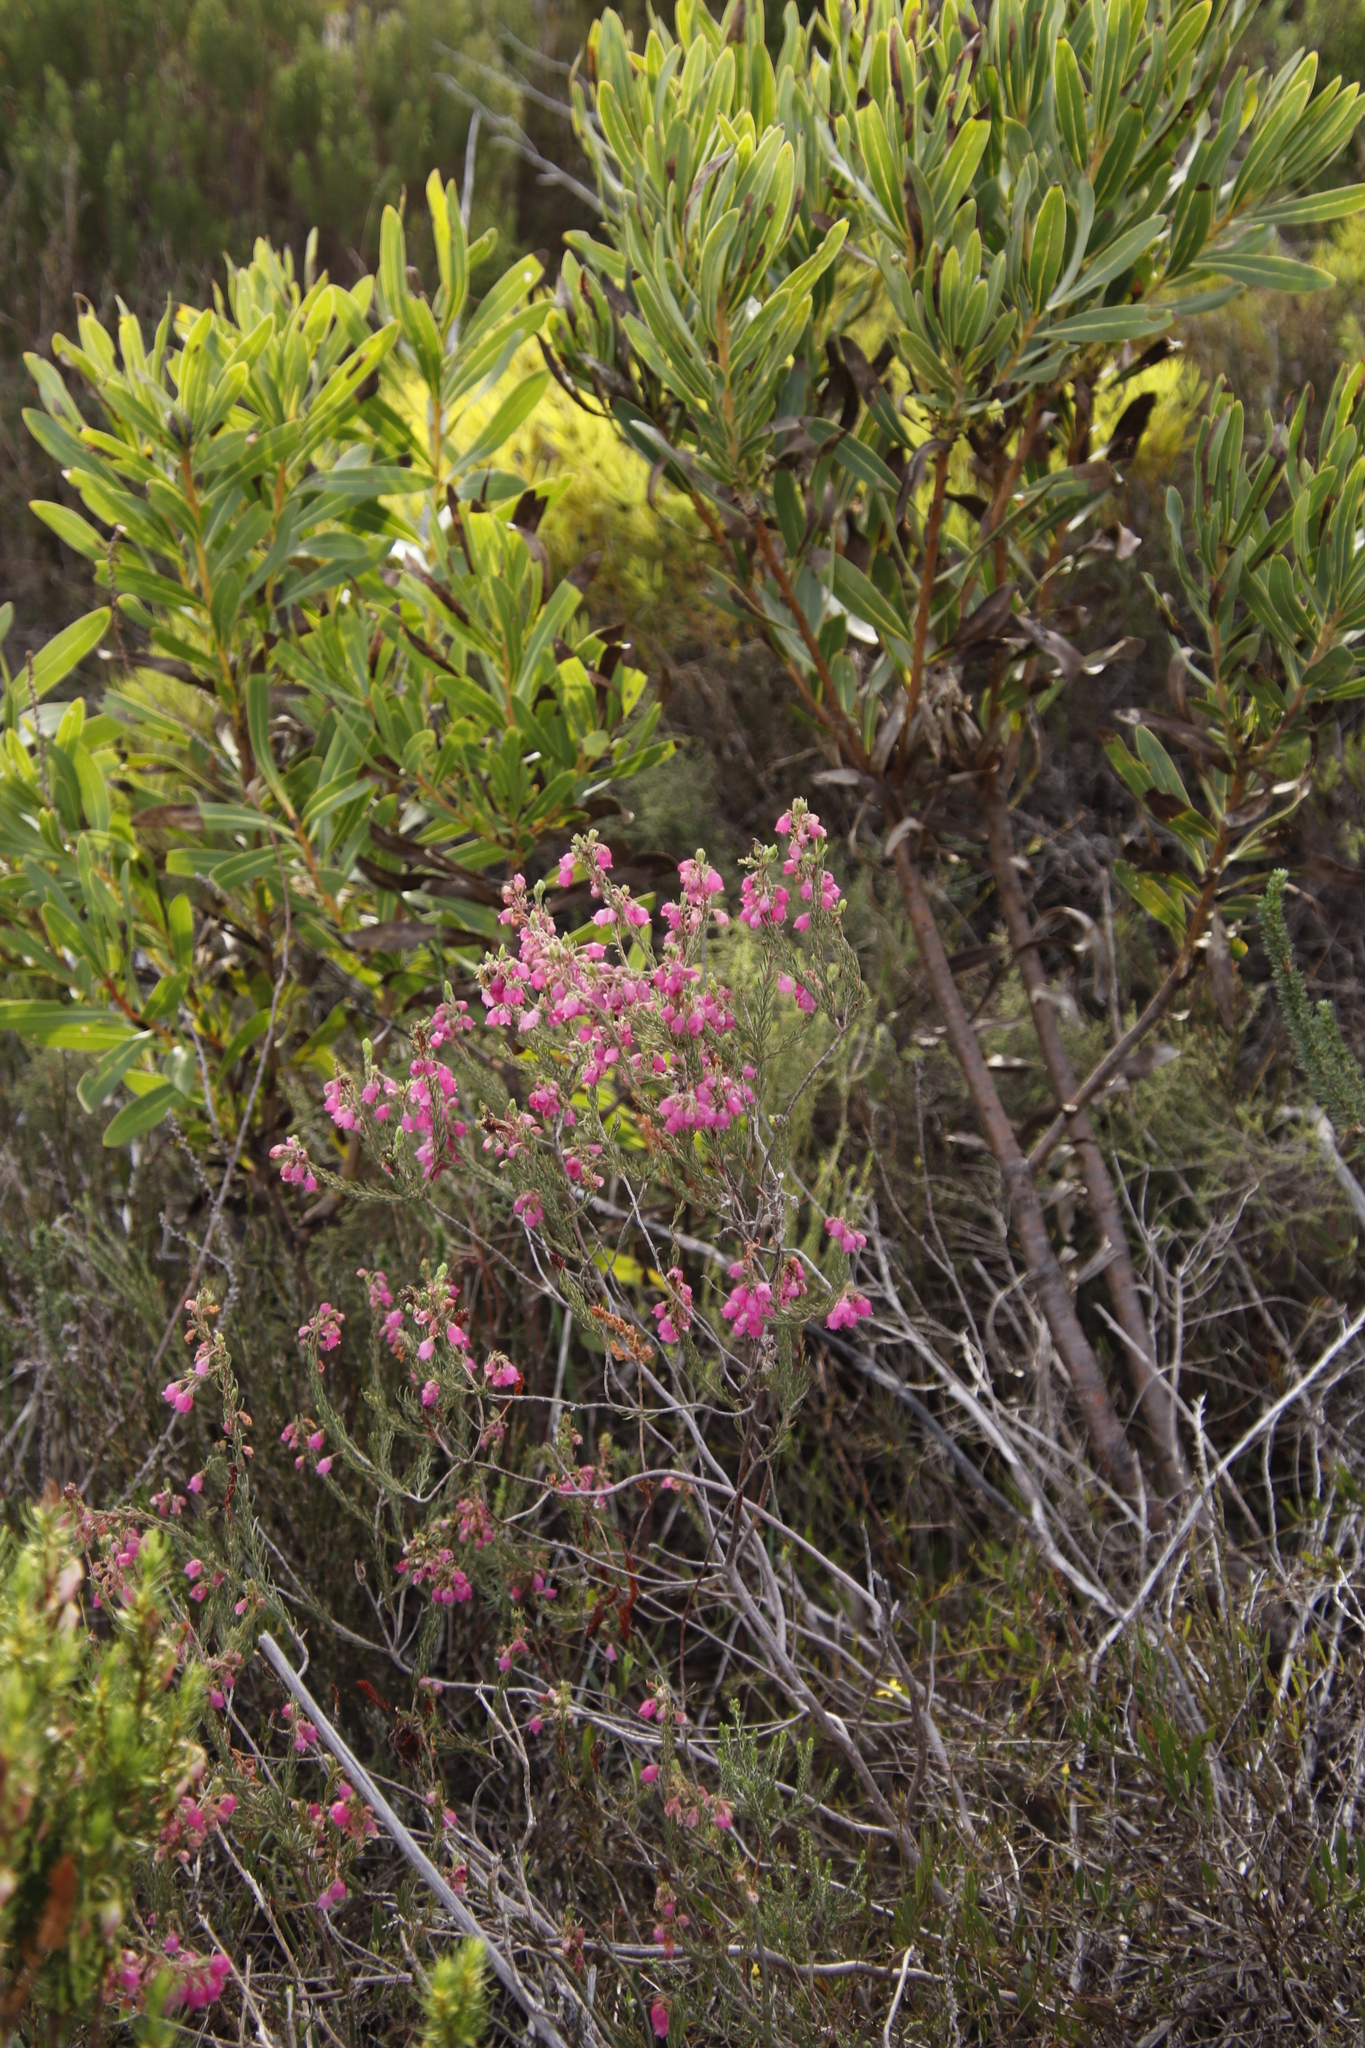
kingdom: Plantae
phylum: Tracheophyta
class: Magnoliopsida
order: Ericales
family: Ericaceae
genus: Erica
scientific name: Erica viscaria
